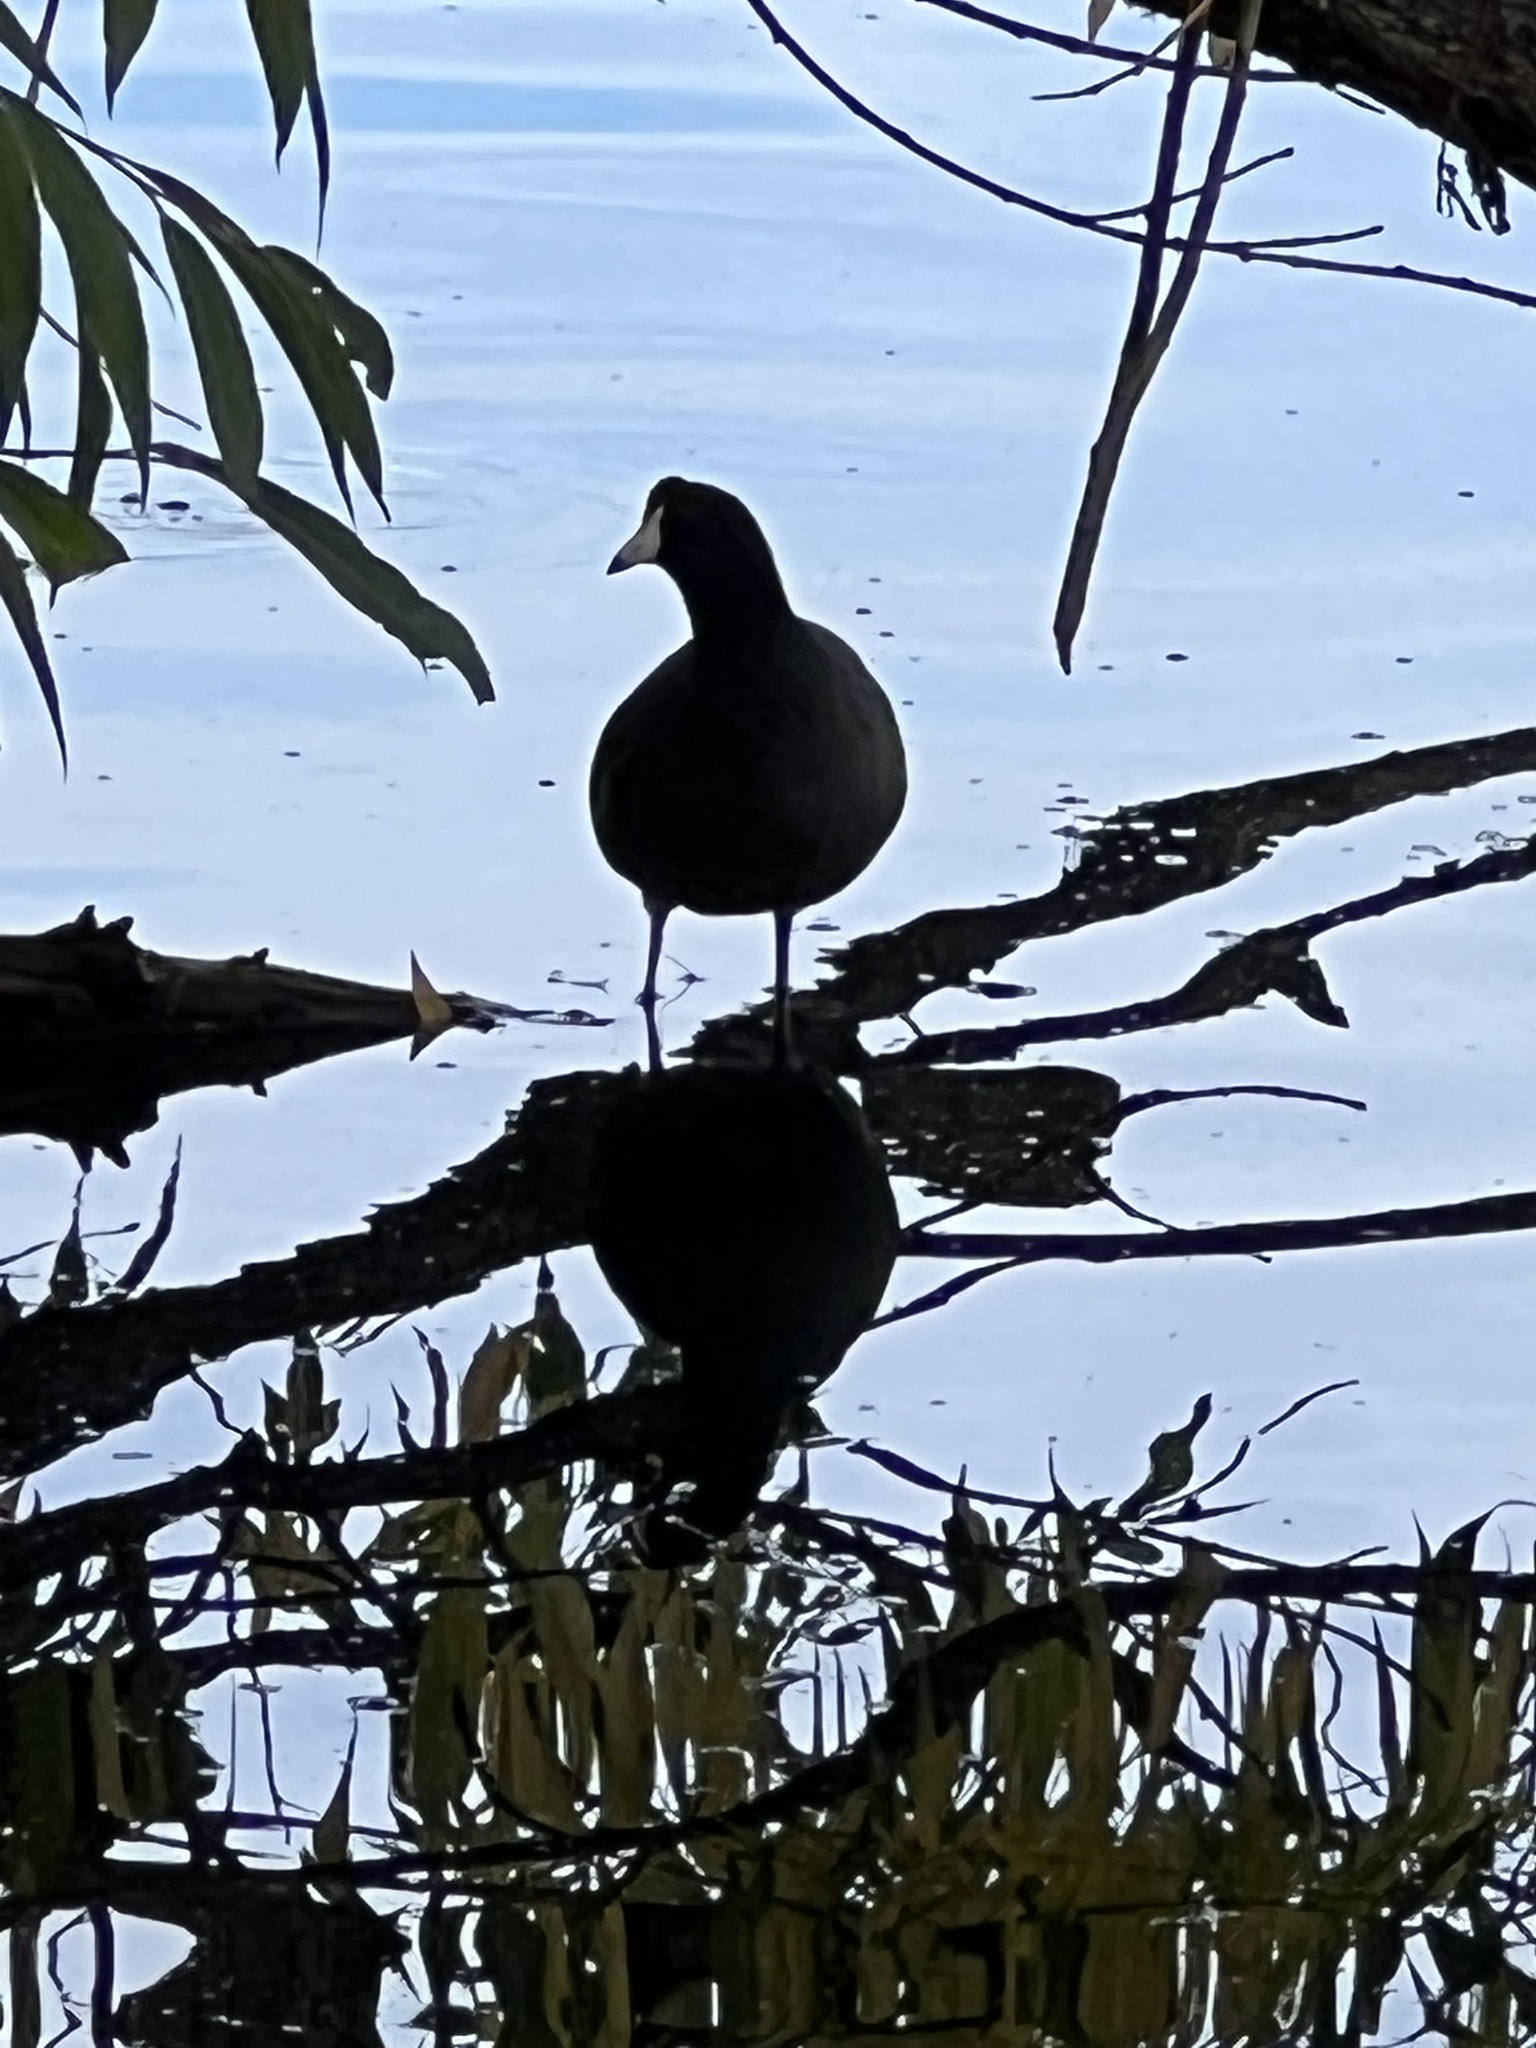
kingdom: Animalia
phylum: Chordata
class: Aves
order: Gruiformes
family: Rallidae
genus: Fulica
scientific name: Fulica americana
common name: American coot
